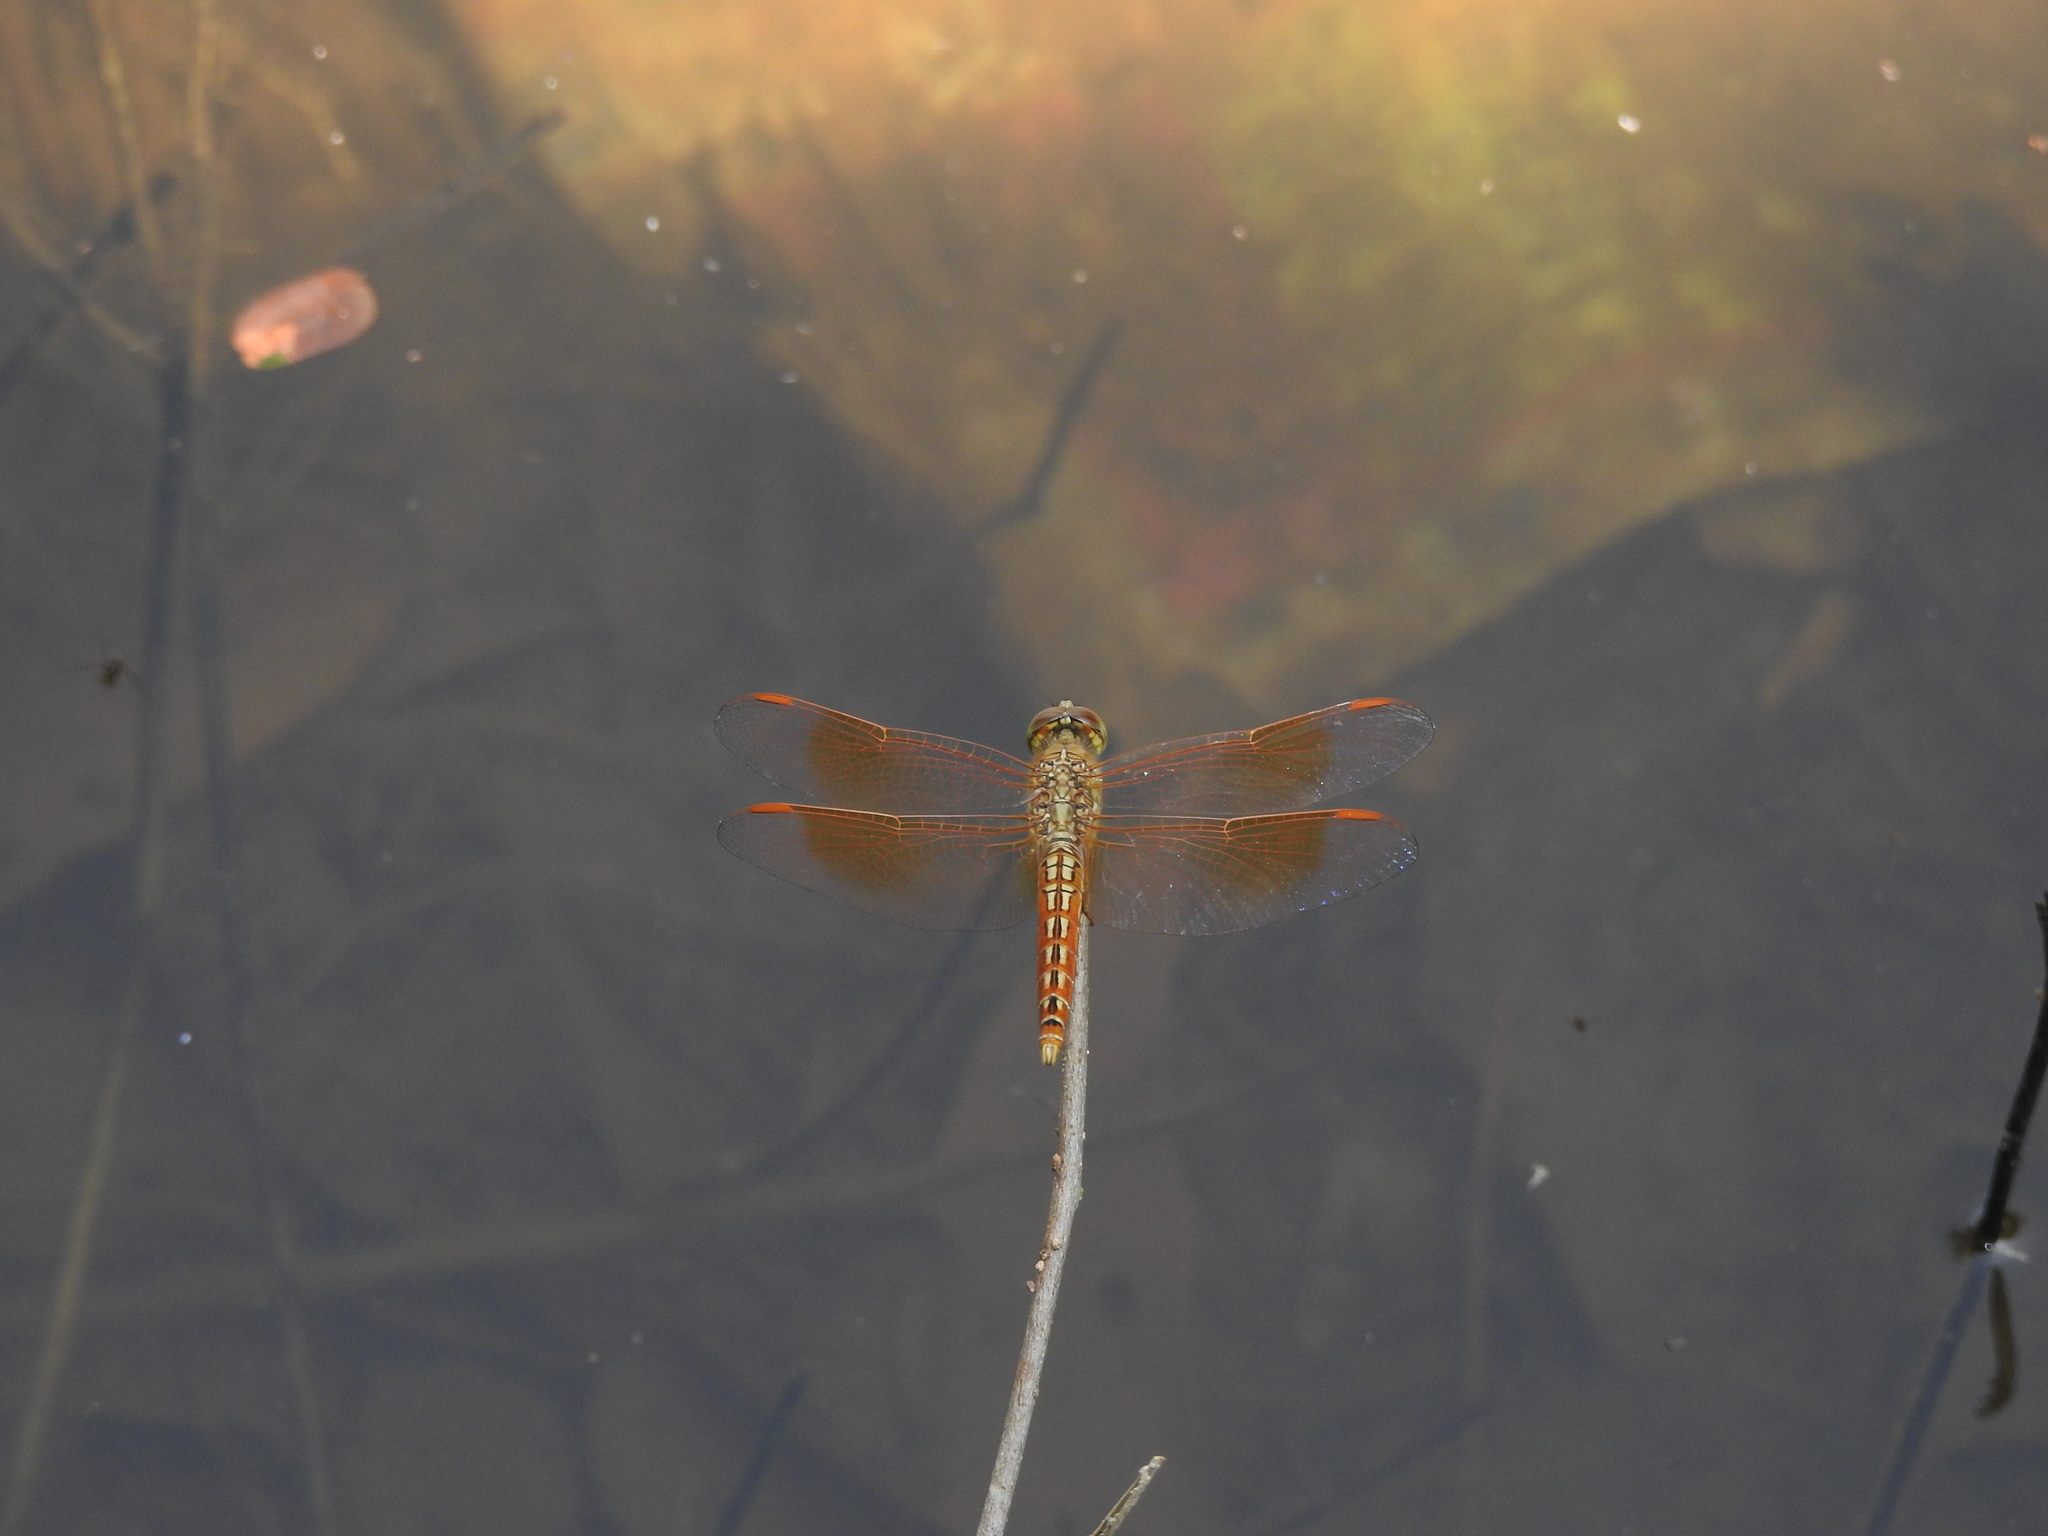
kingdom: Animalia
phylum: Arthropoda
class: Insecta
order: Odonata
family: Libellulidae
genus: Brachythemis
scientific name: Brachythemis contaminata
